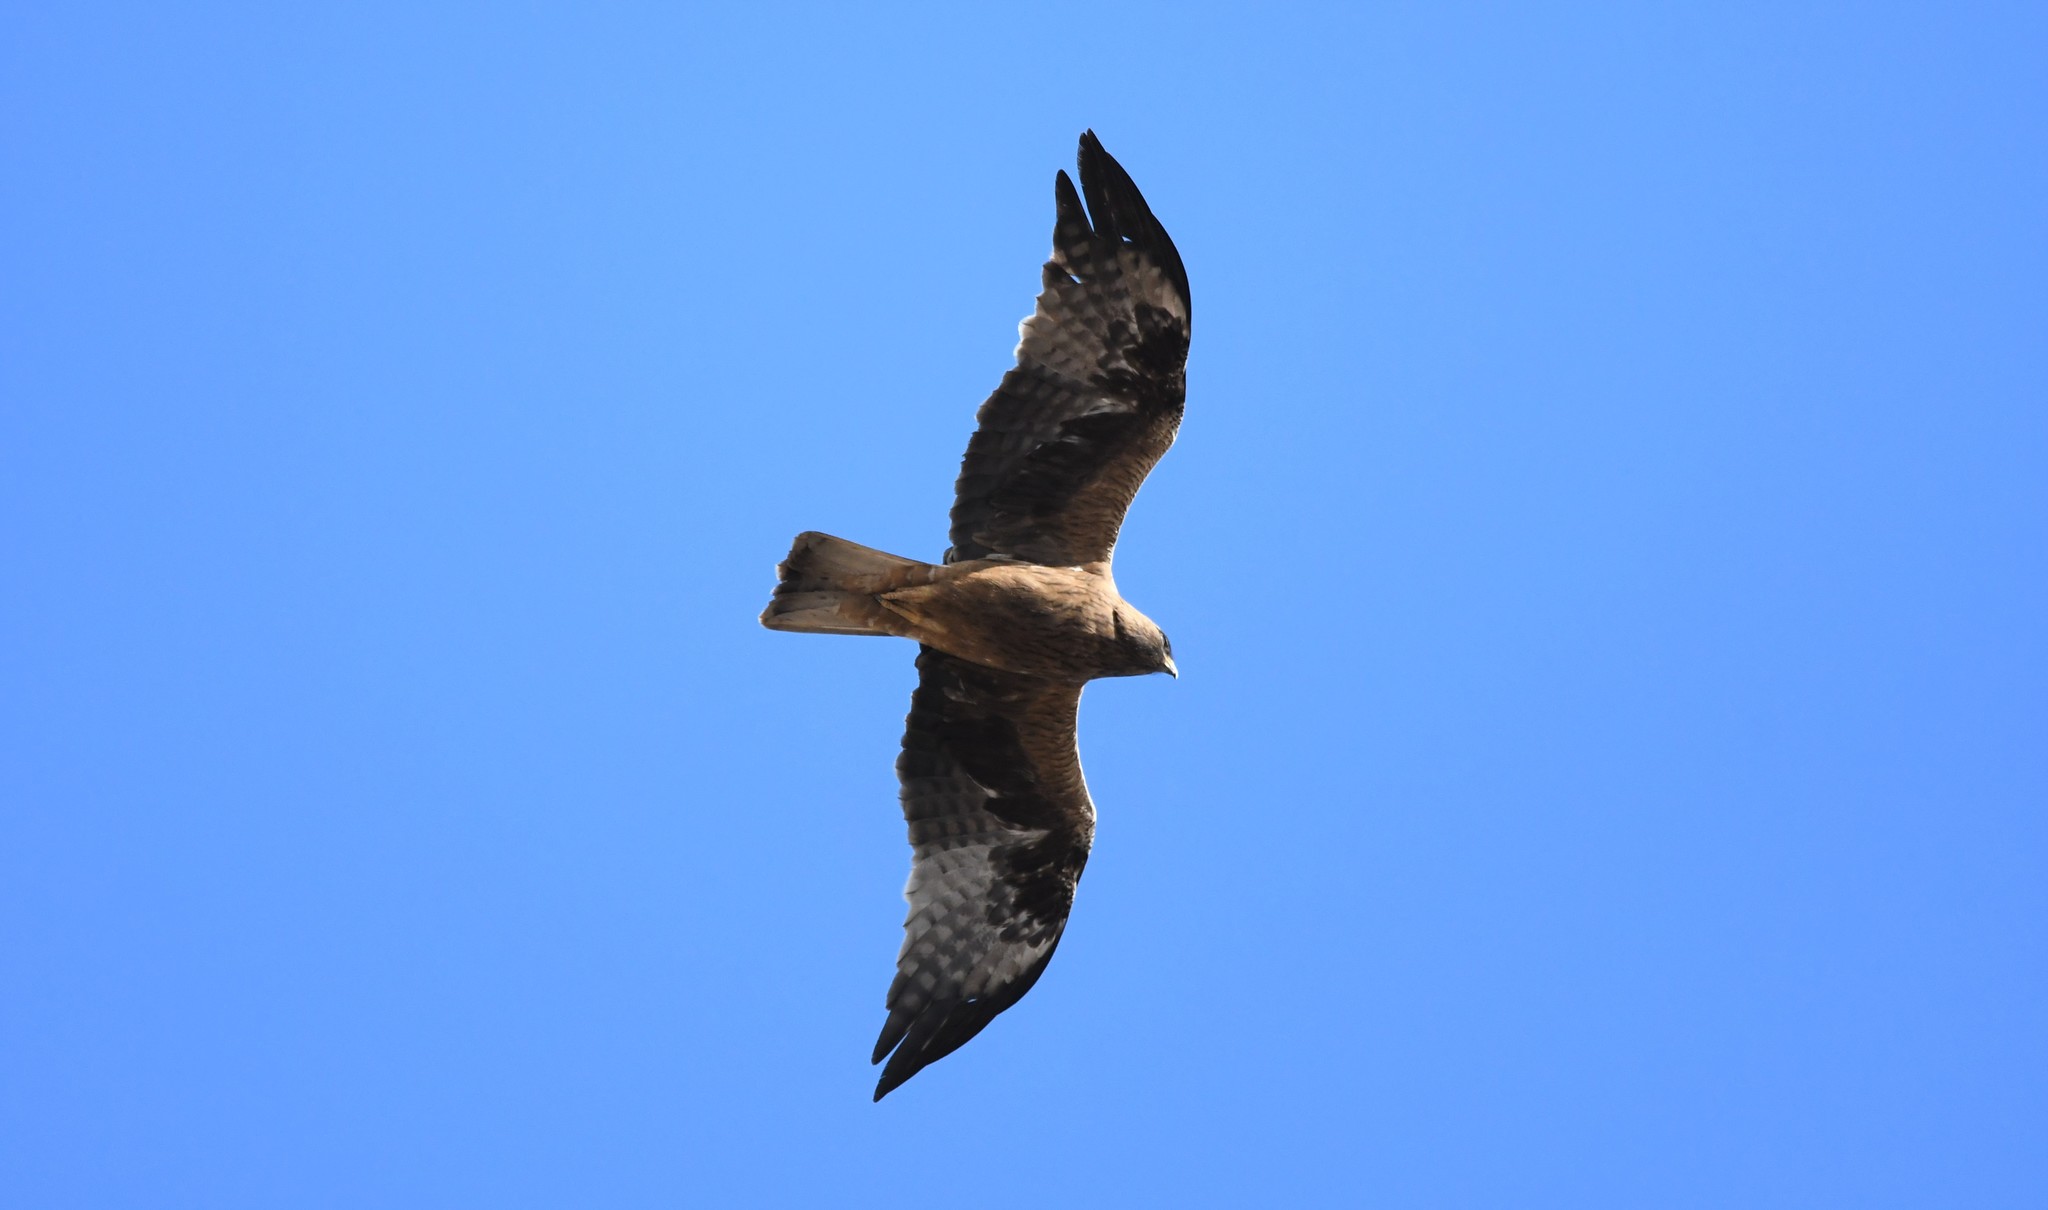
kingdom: Animalia
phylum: Chordata
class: Aves
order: Accipitriformes
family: Accipitridae
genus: Hieraaetus
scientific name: Hieraaetus pennatus
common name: Booted eagle
